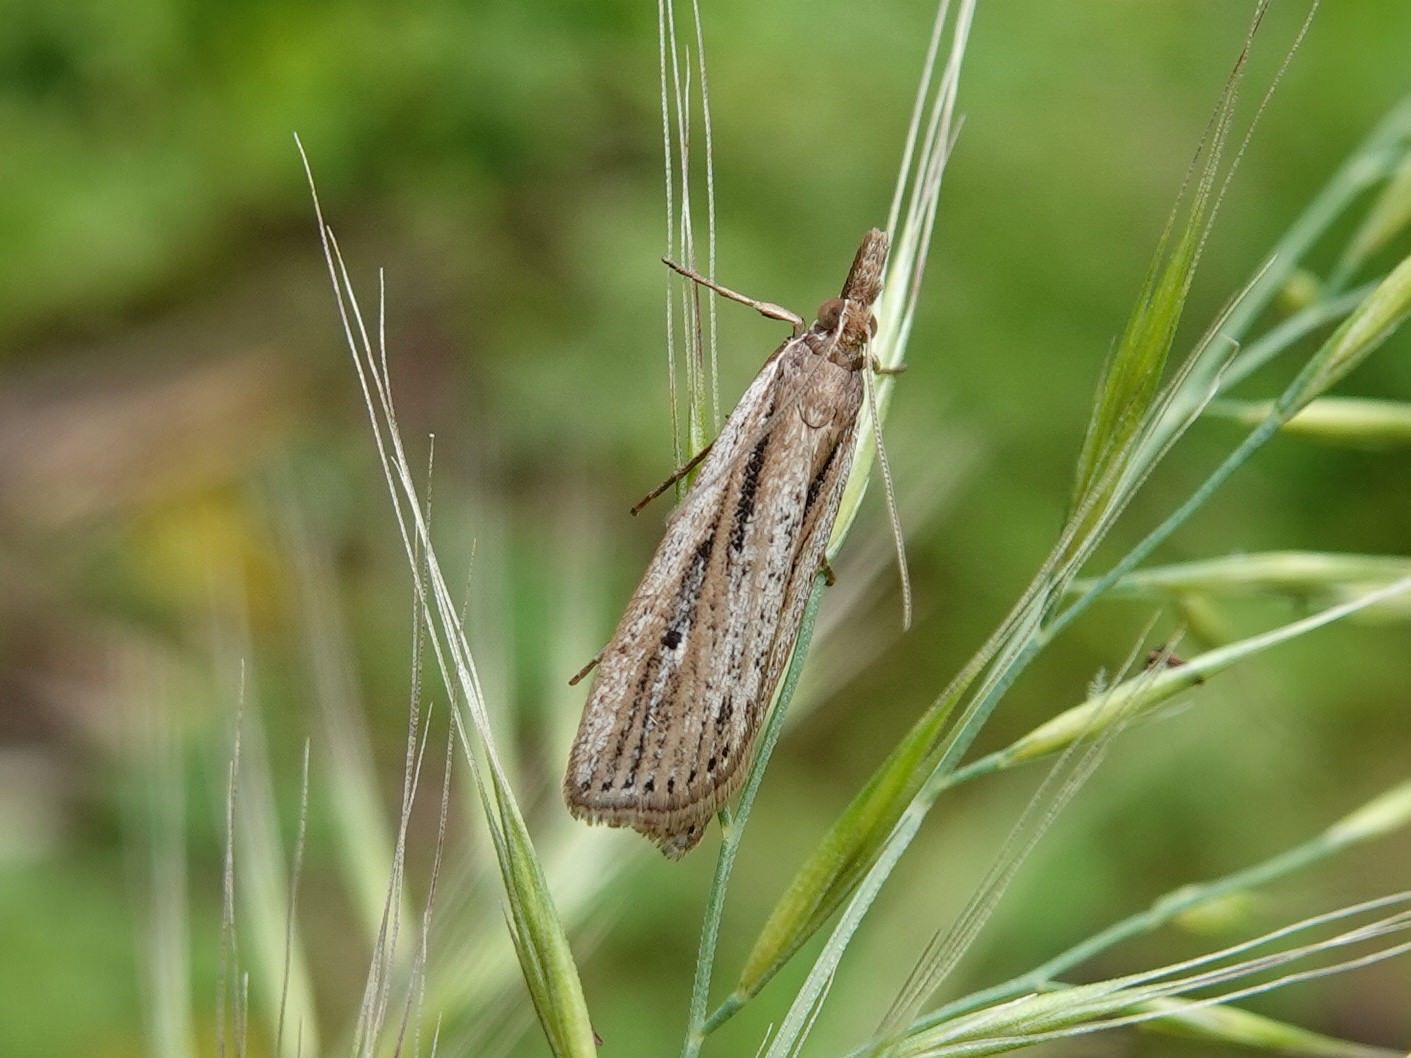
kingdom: Animalia
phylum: Arthropoda
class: Insecta
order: Lepidoptera
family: Crambidae
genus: Eudonia
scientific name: Eudonia sabulosella
